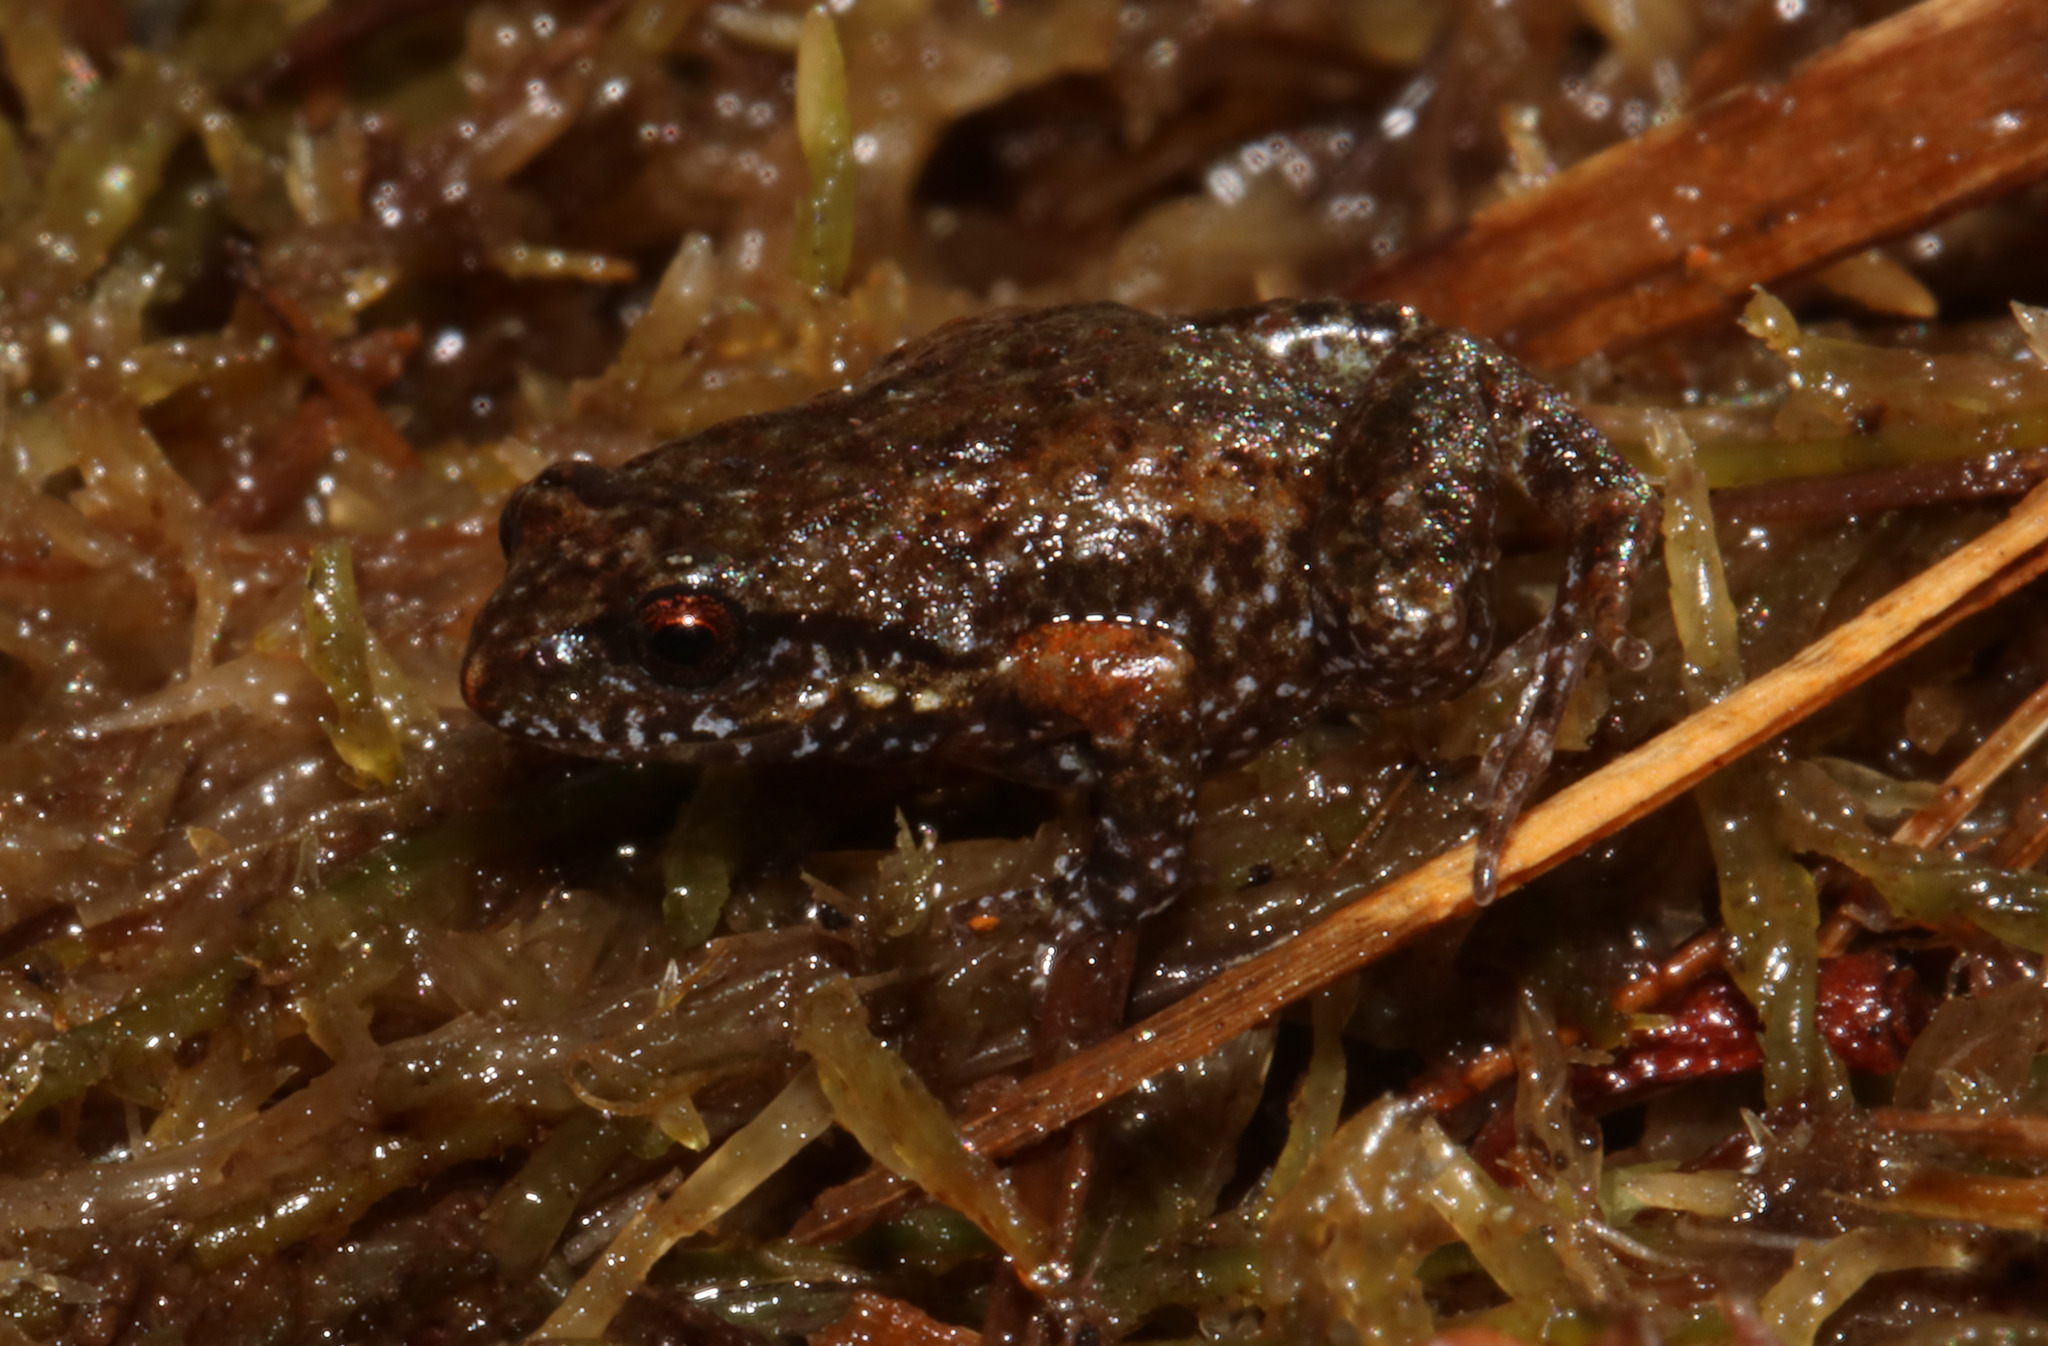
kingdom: Animalia
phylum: Chordata
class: Amphibia
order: Anura
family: Pyxicephalidae
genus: Arthroleptella
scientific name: Arthroleptella subvoce
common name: Moss frog
